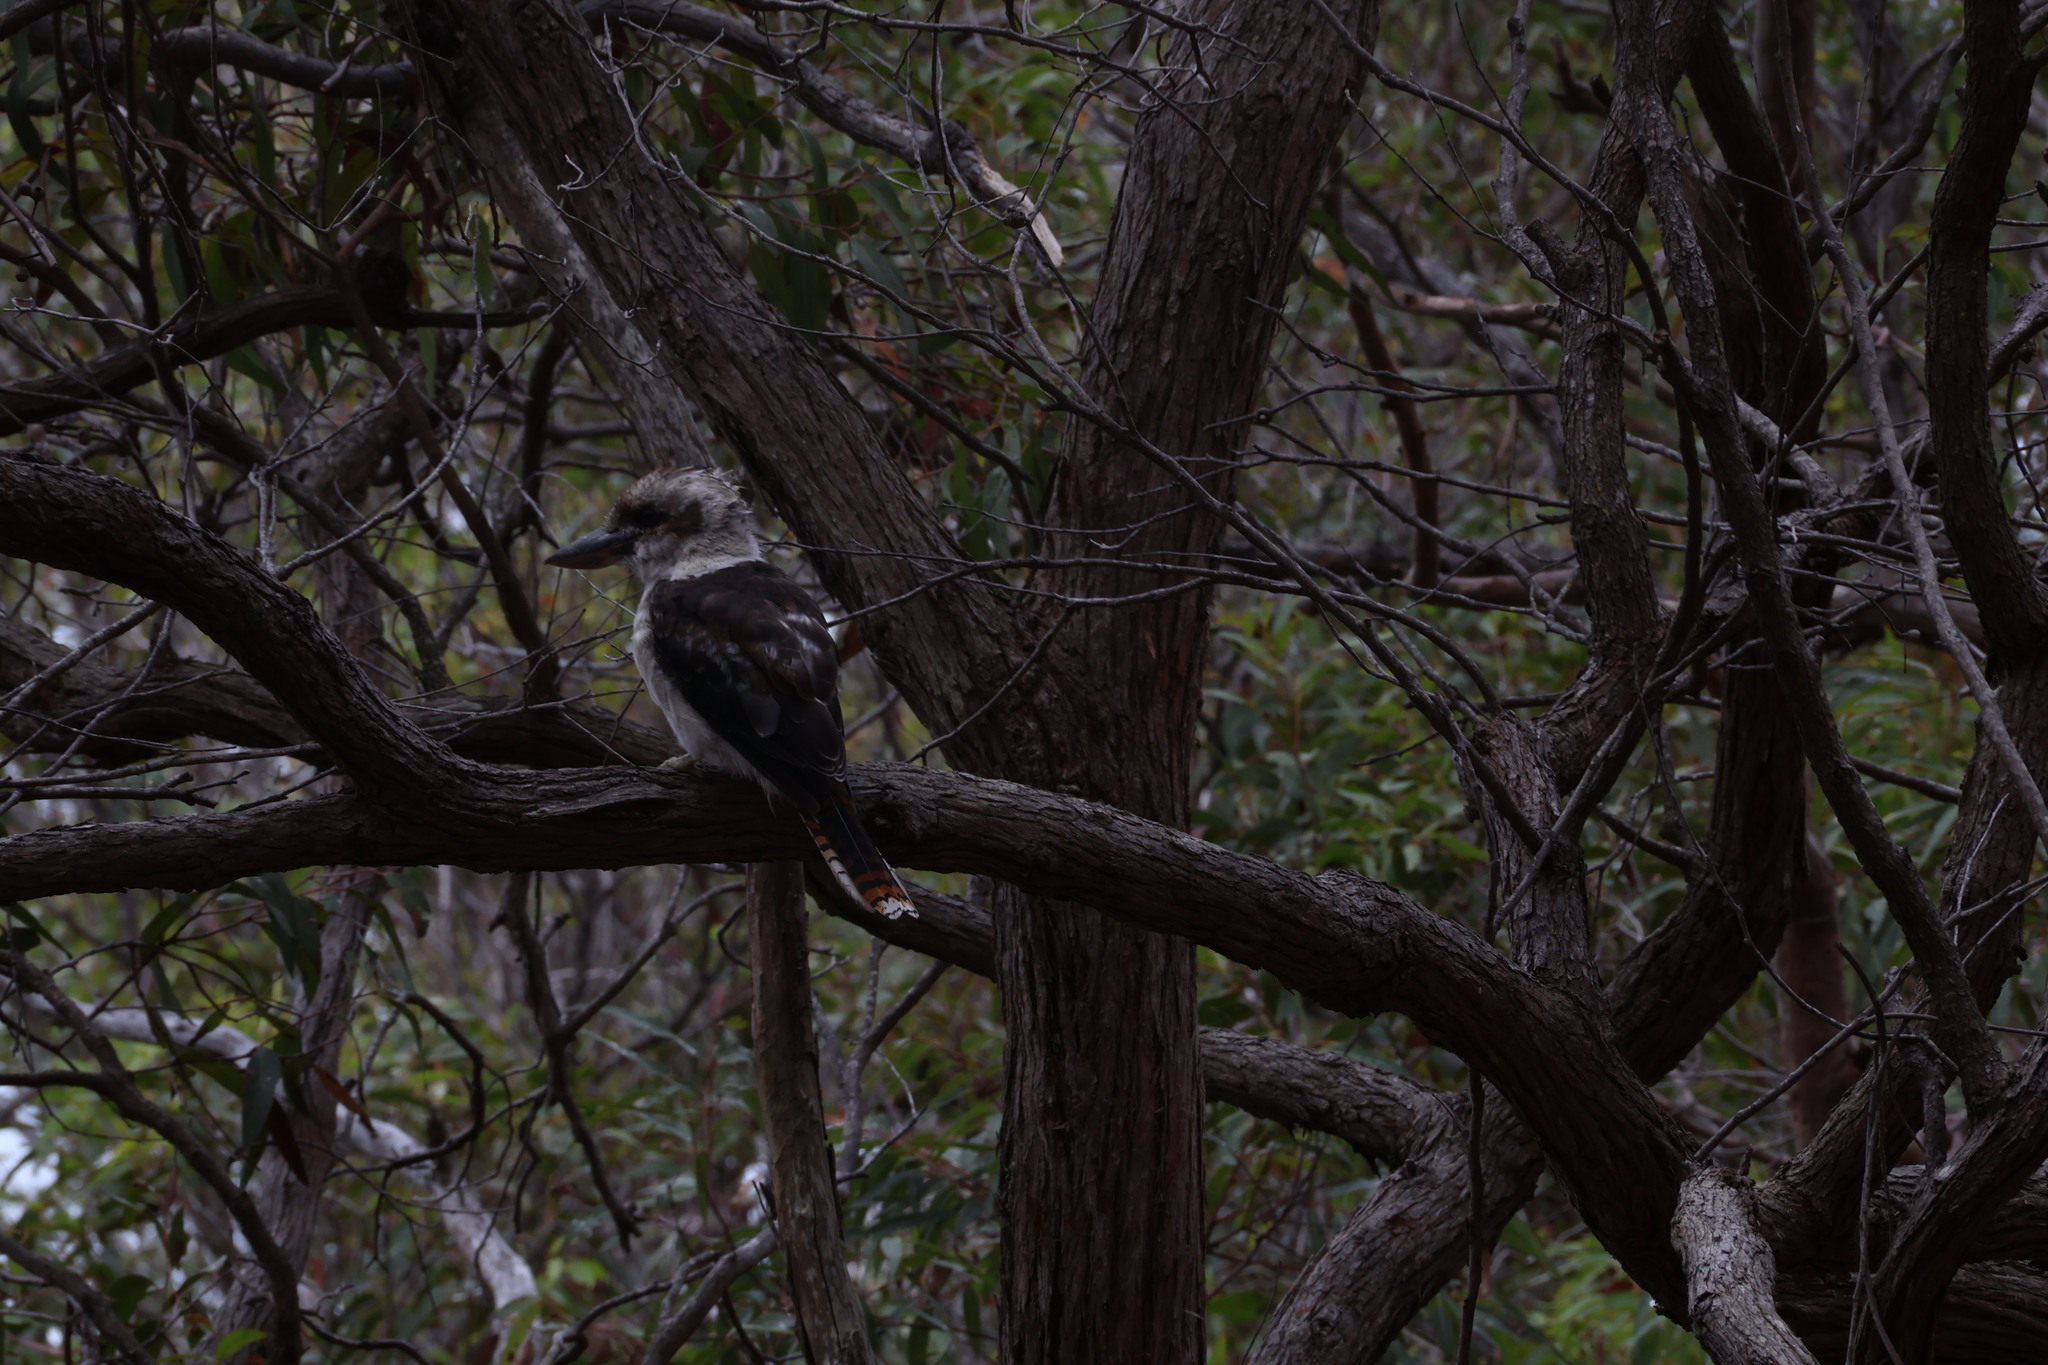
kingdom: Animalia
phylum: Chordata
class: Aves
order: Coraciiformes
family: Alcedinidae
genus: Dacelo
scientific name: Dacelo novaeguineae
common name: Laughing kookaburra
